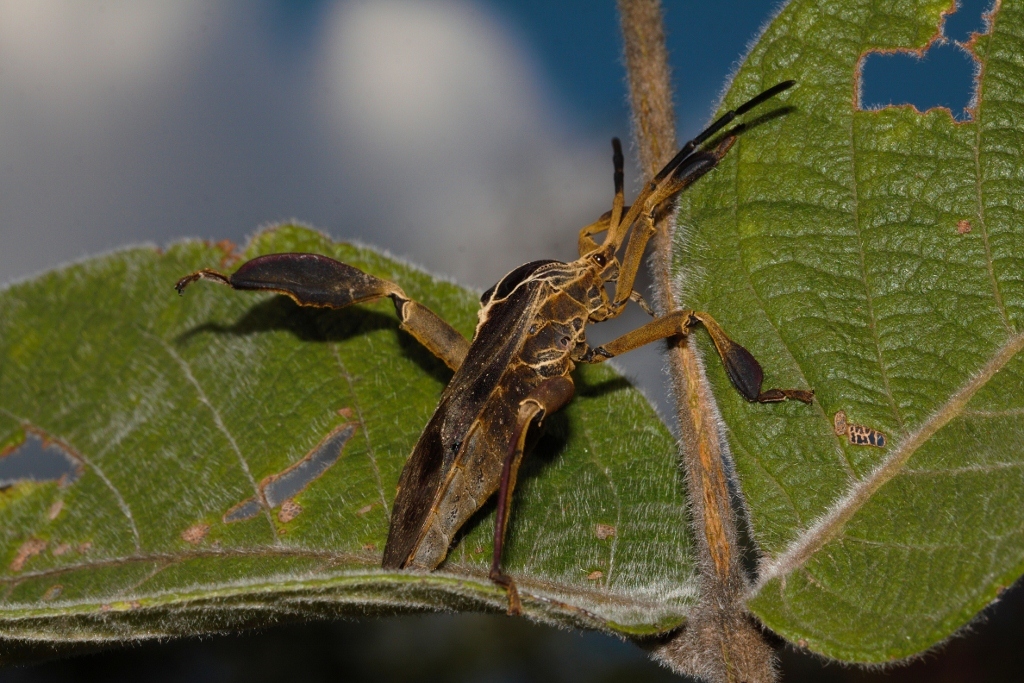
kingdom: Animalia
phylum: Arthropoda
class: Insecta
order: Hemiptera
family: Coreidae
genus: Petascelis
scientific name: Petascelis remipes
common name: Giant twig wilter
